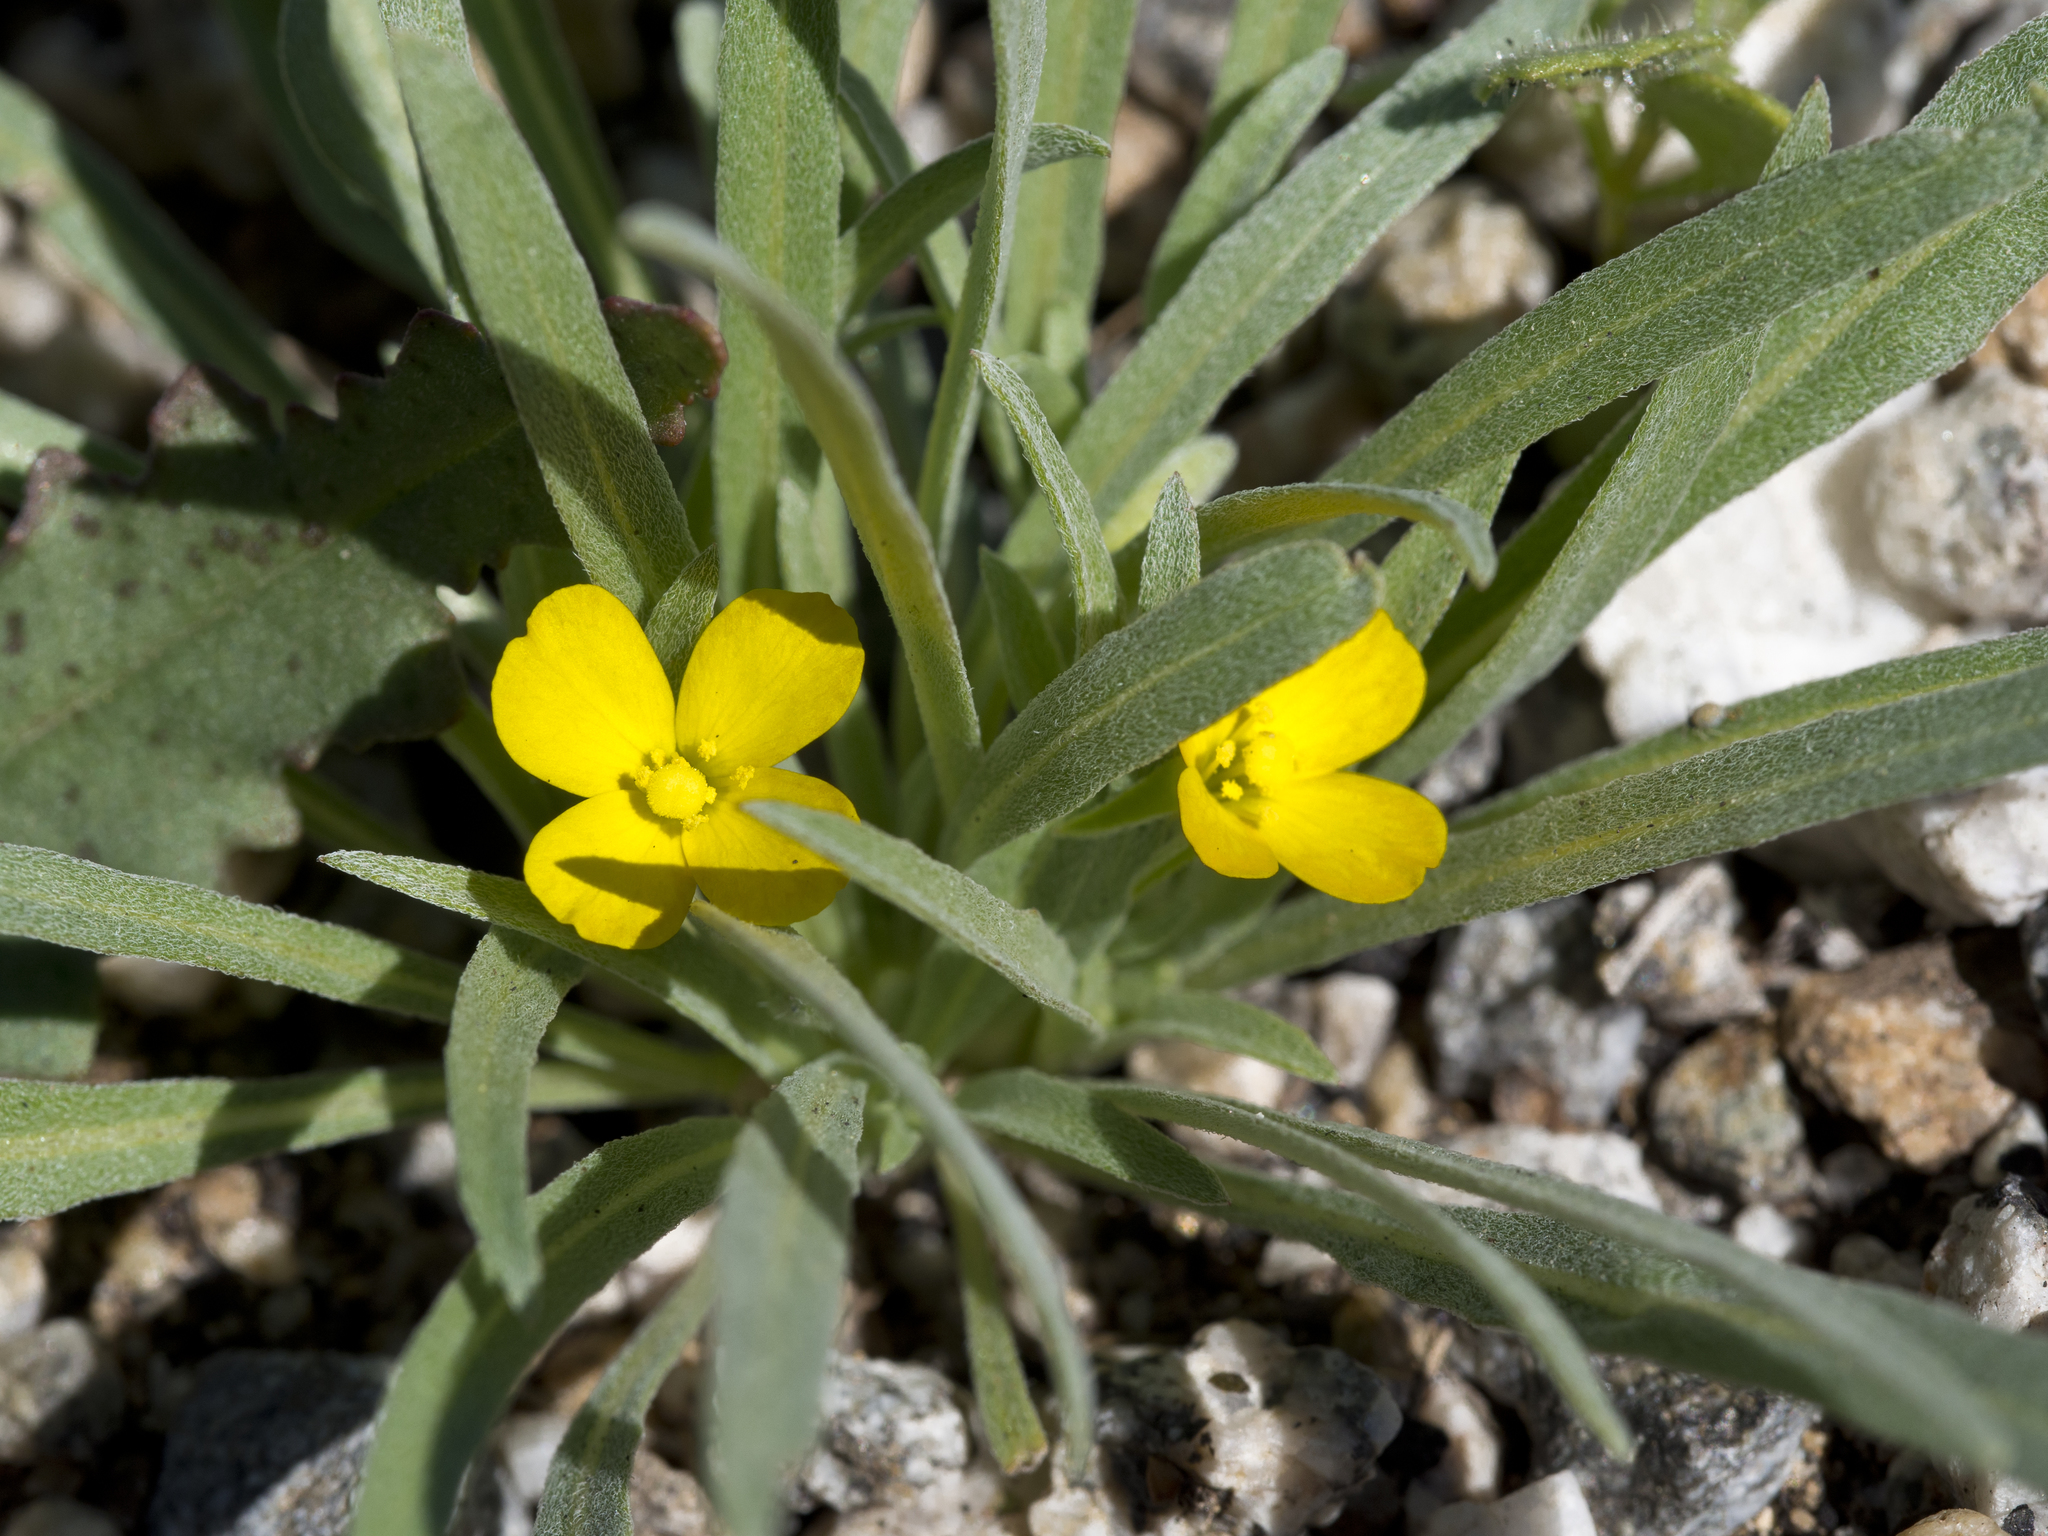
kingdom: Plantae
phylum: Tracheophyta
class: Magnoliopsida
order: Myrtales
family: Onagraceae
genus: Camissoniopsis
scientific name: Camissoniopsis pallida
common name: Paleyellow suncup
